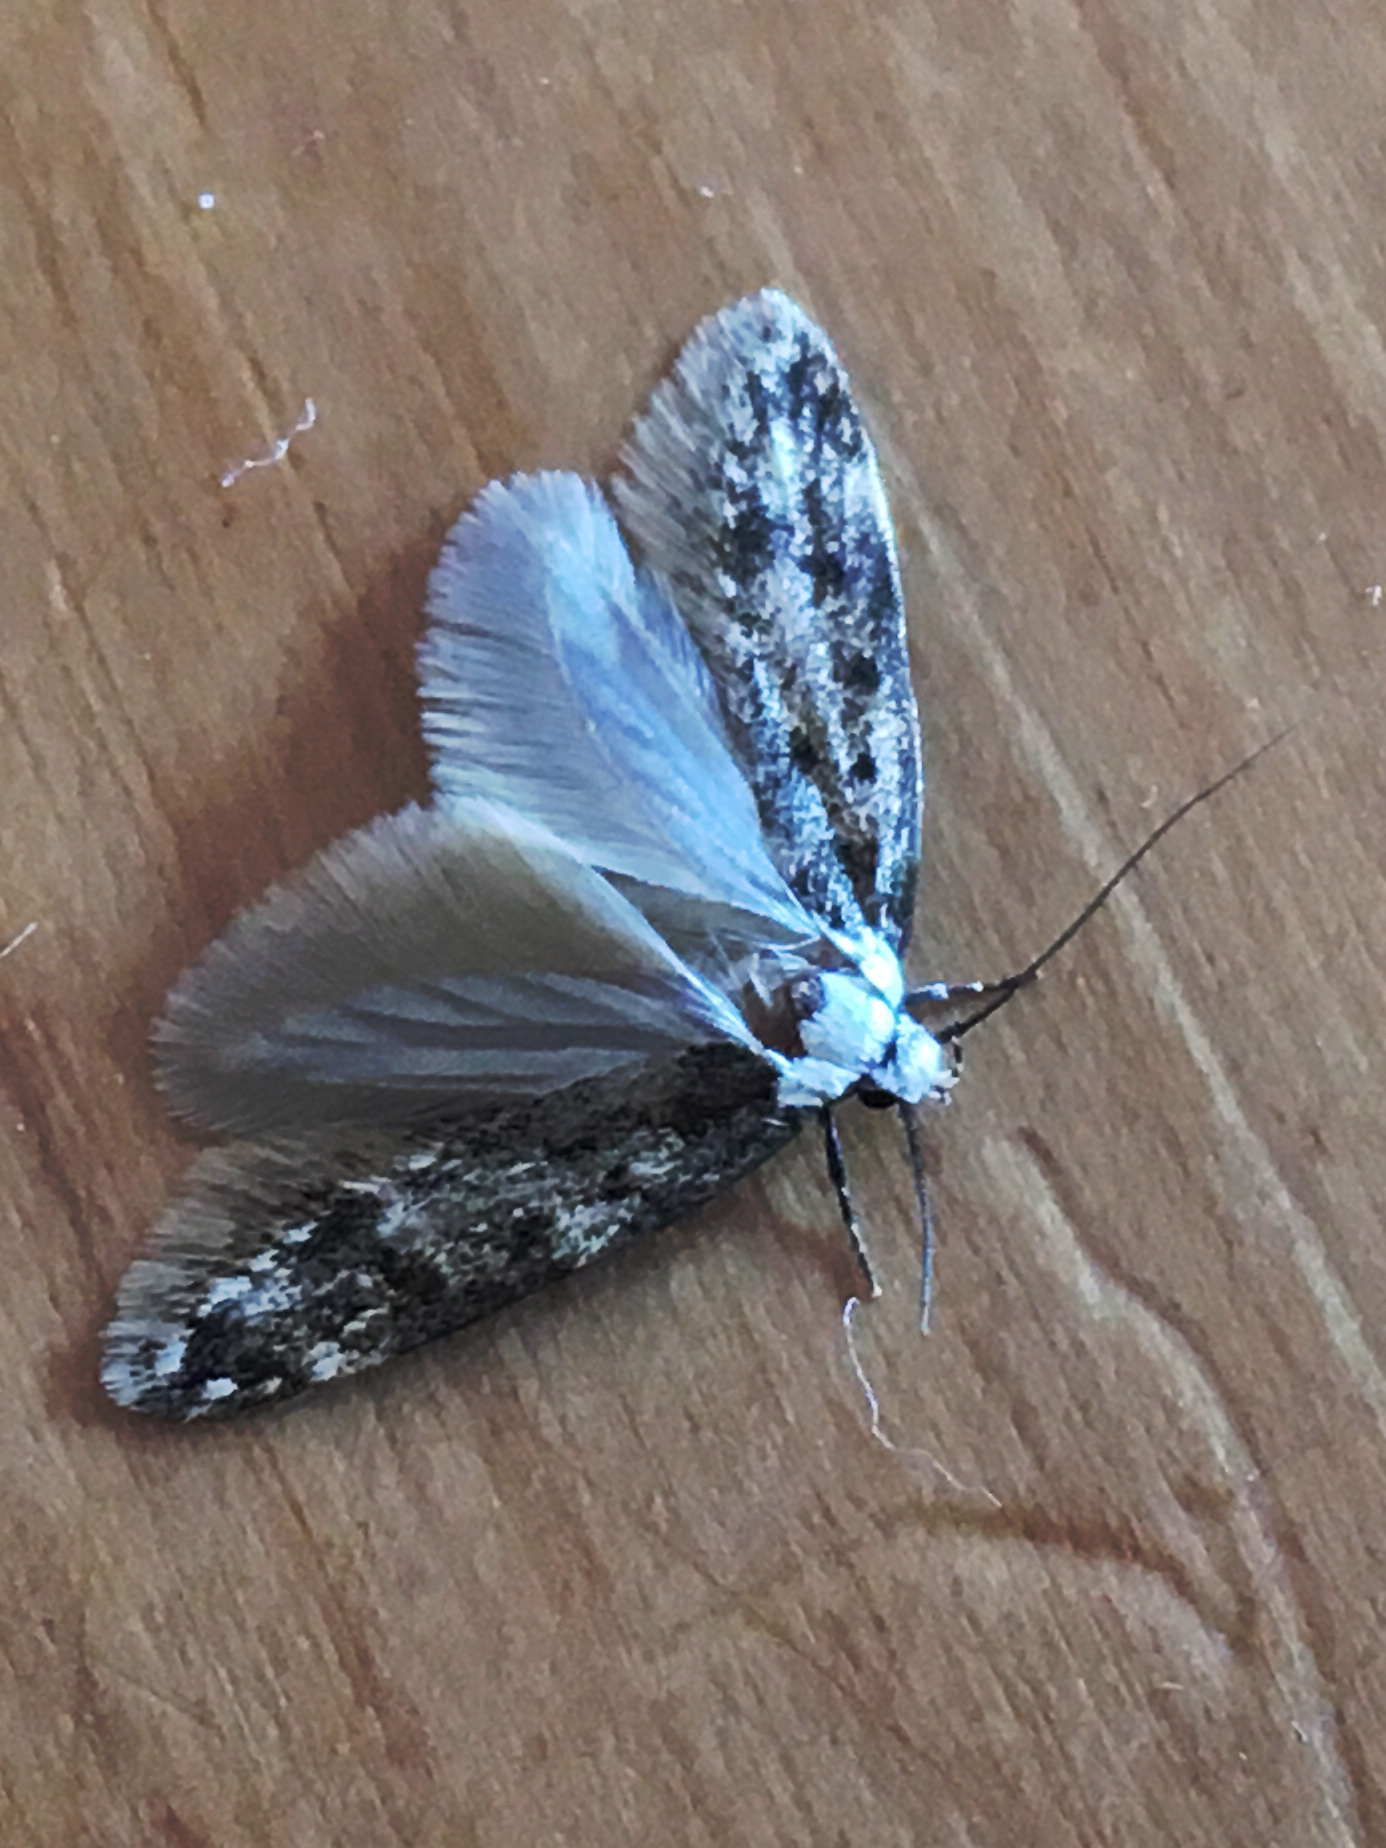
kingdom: Animalia
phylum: Arthropoda
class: Insecta
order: Lepidoptera
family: Oecophoridae
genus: Endrosis
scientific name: Endrosis sarcitrella
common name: White-shouldered house moth
